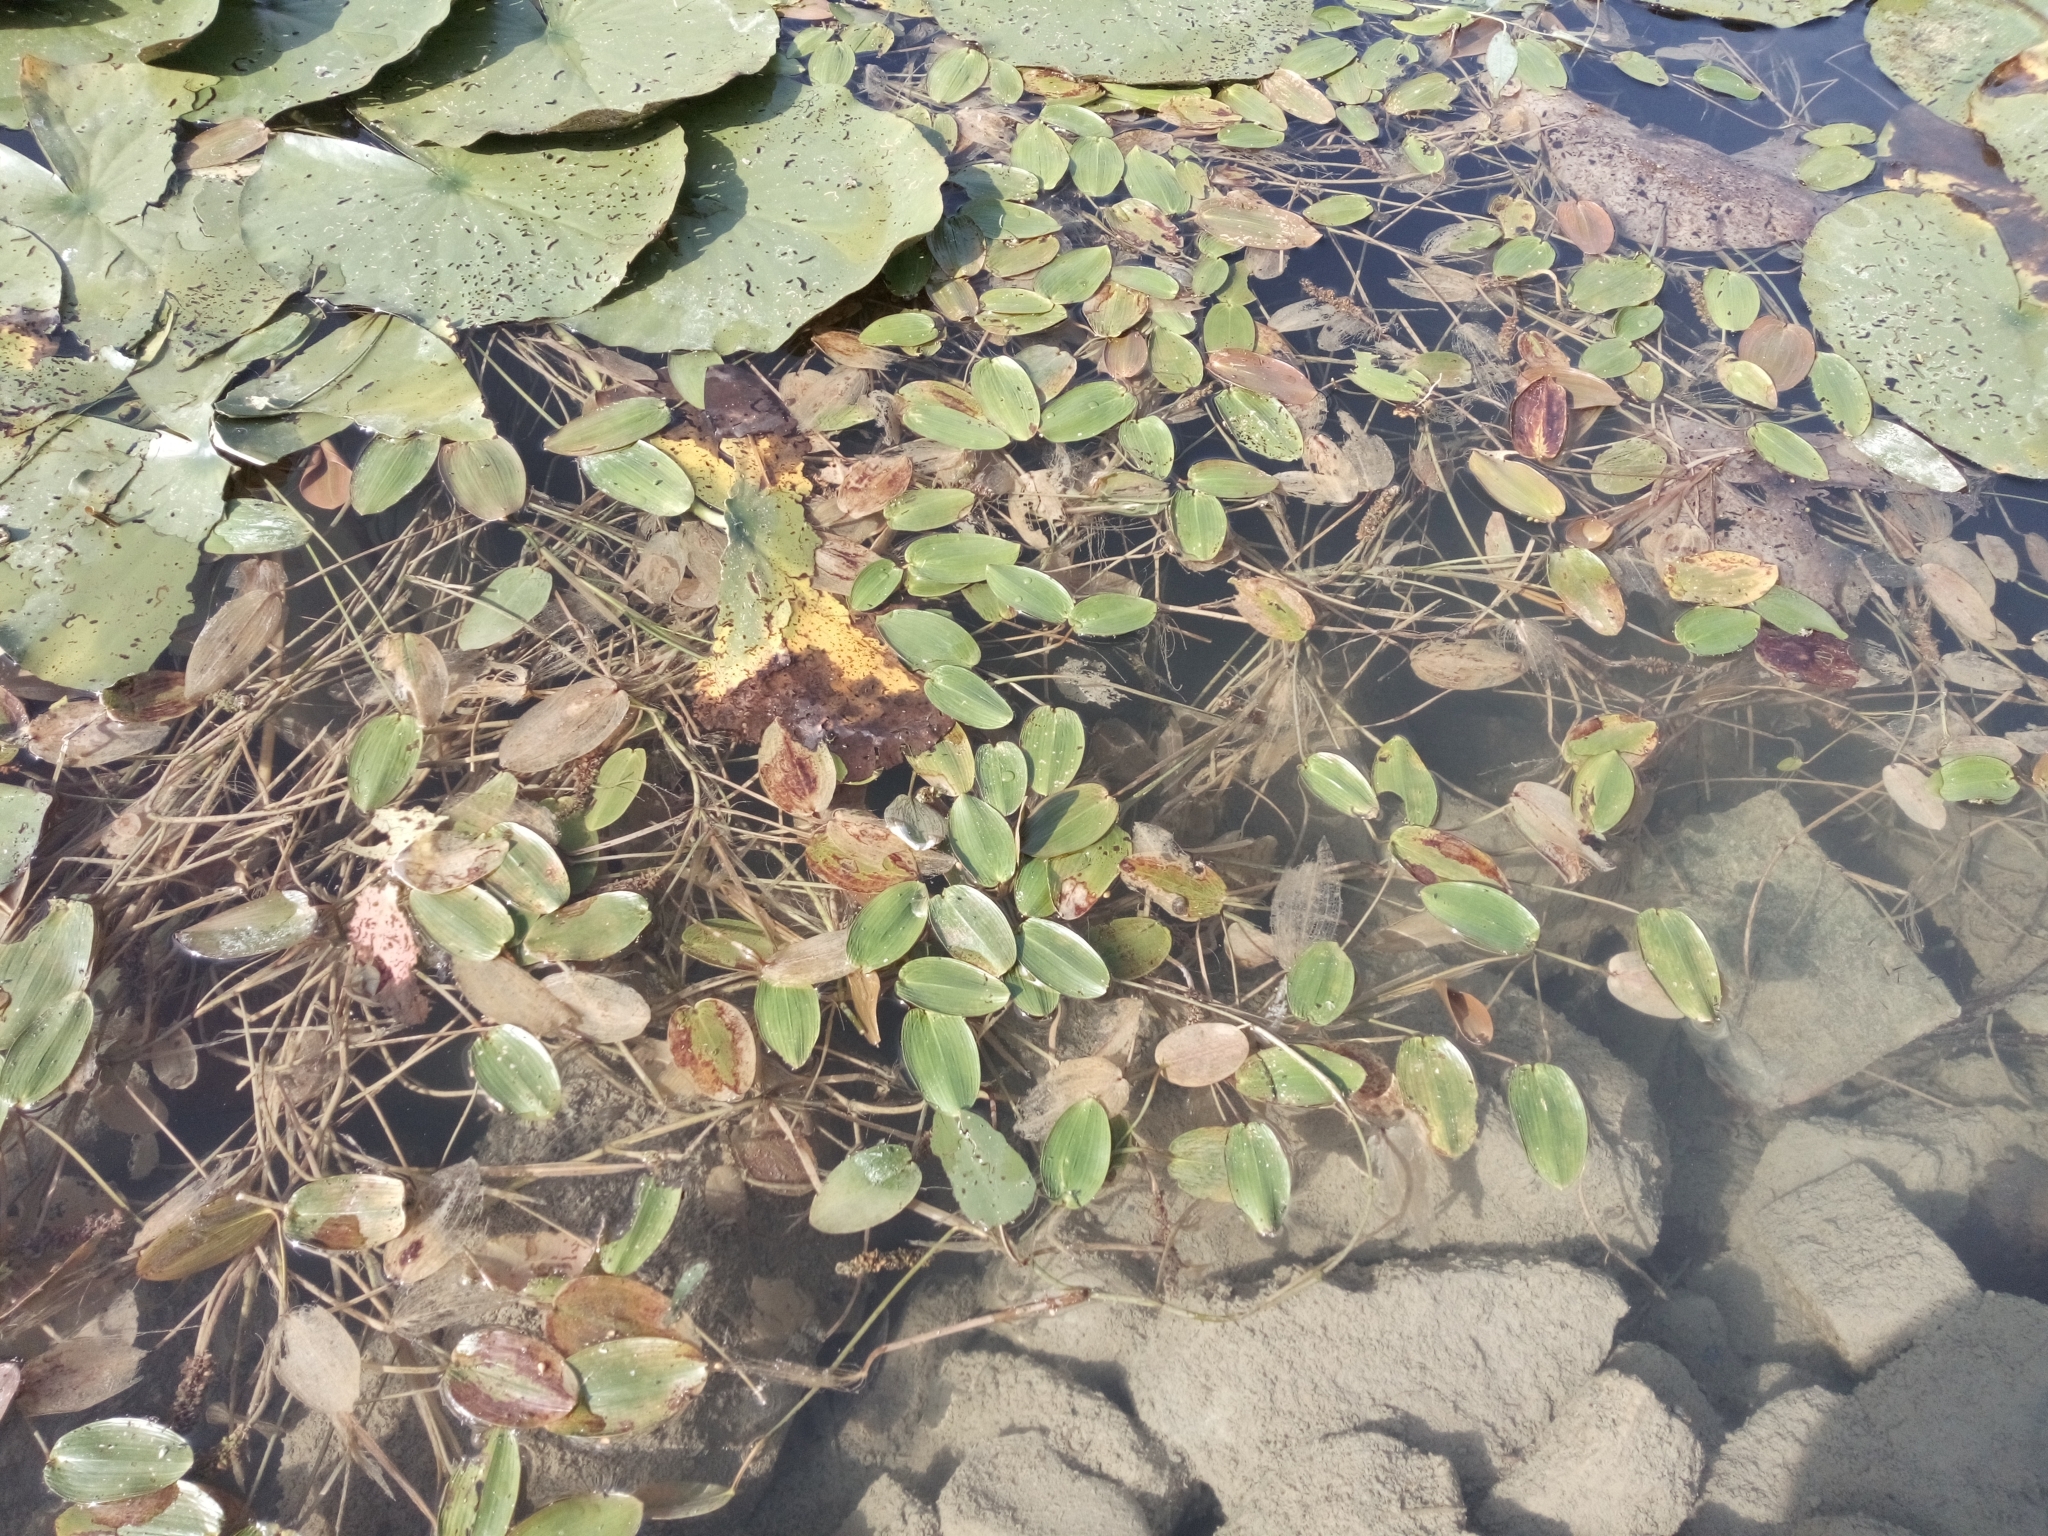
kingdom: Plantae
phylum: Tracheophyta
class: Liliopsida
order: Alismatales
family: Potamogetonaceae
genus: Potamogeton
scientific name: Potamogeton natans
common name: Broad-leaved pondweed
